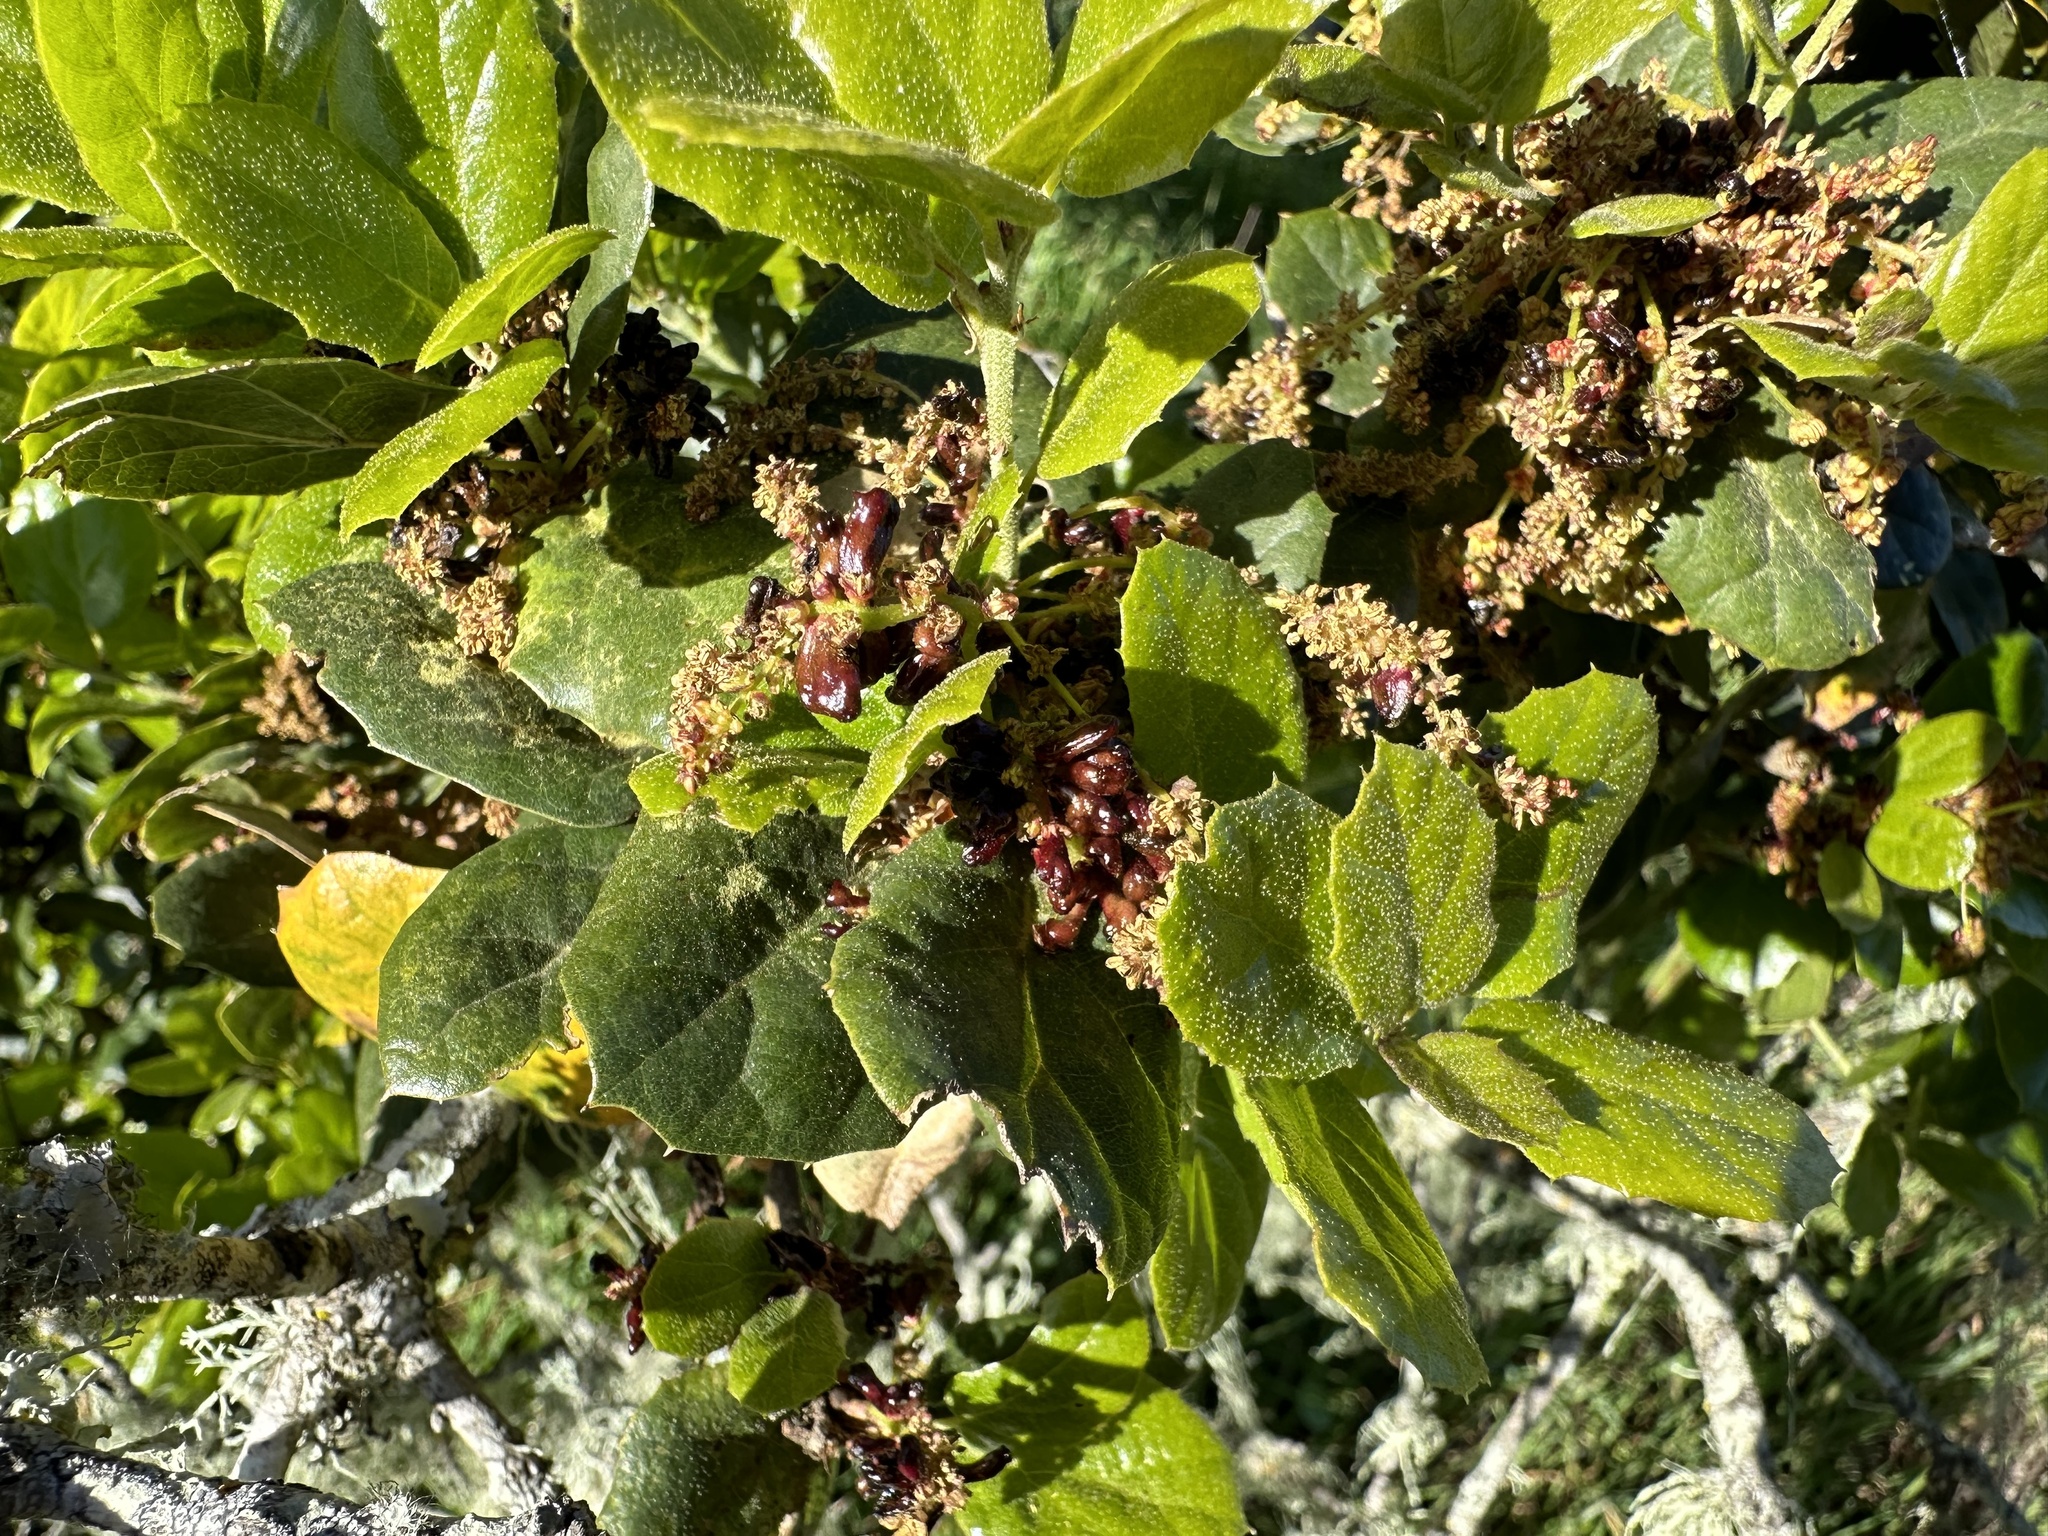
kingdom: Animalia
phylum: Arthropoda
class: Insecta
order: Hymenoptera
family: Cynipidae
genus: Dryocosmus
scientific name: Dryocosmus
